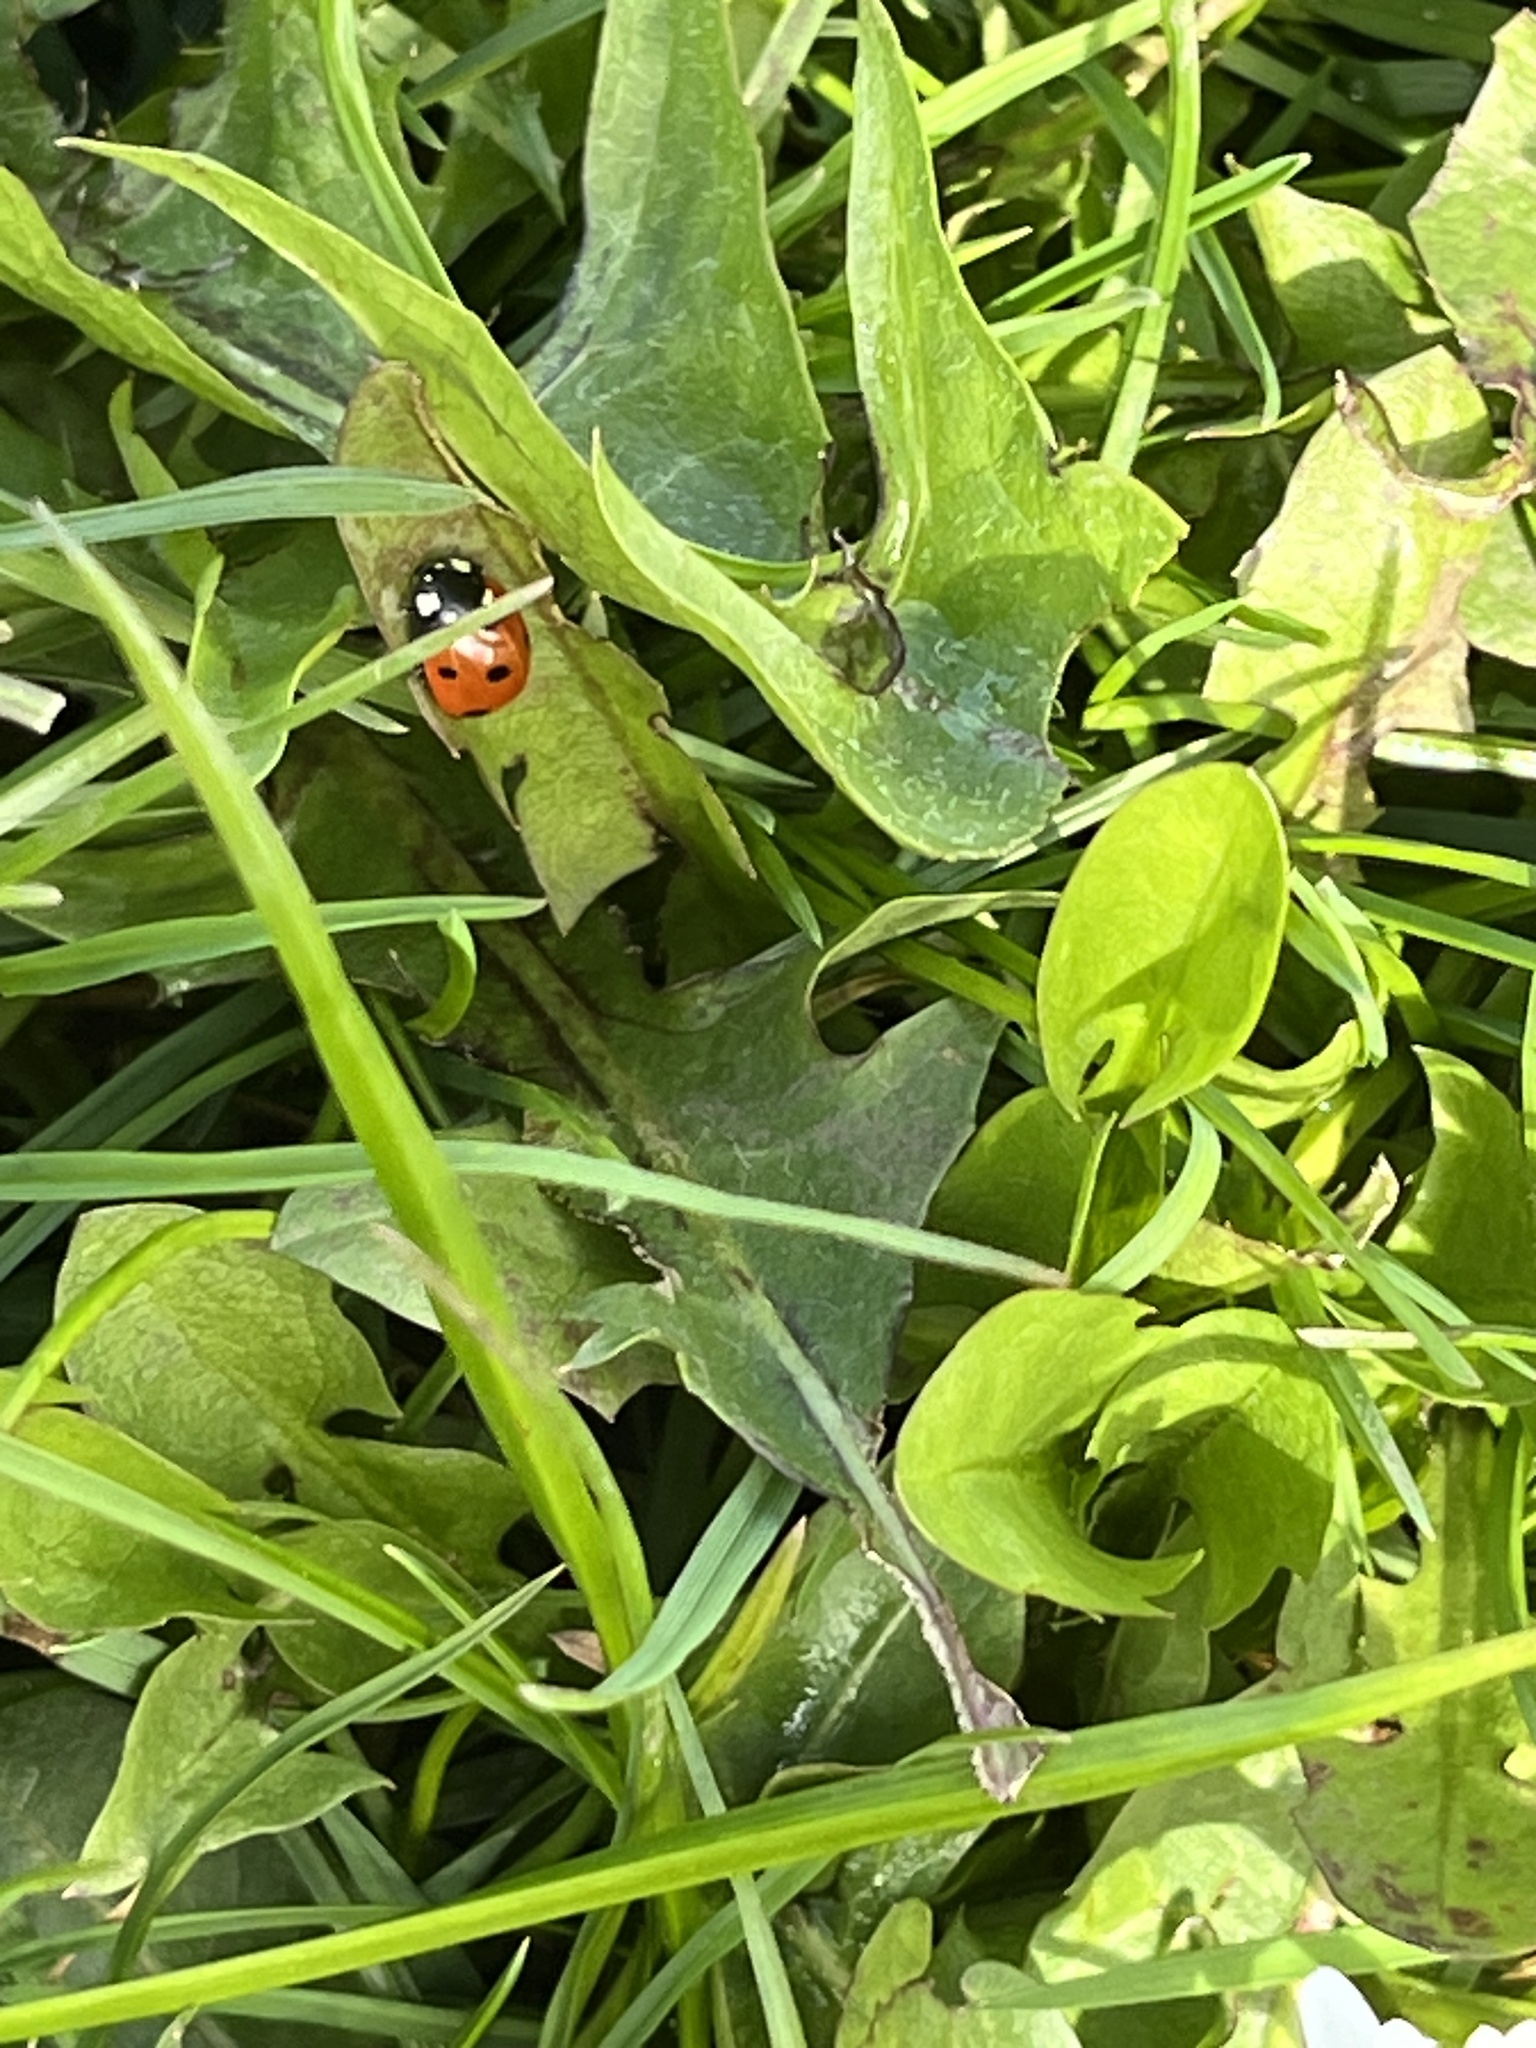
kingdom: Animalia
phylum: Arthropoda
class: Insecta
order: Coleoptera
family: Coccinellidae
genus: Coccinella
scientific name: Coccinella septempunctata
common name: Sevenspotted lady beetle
